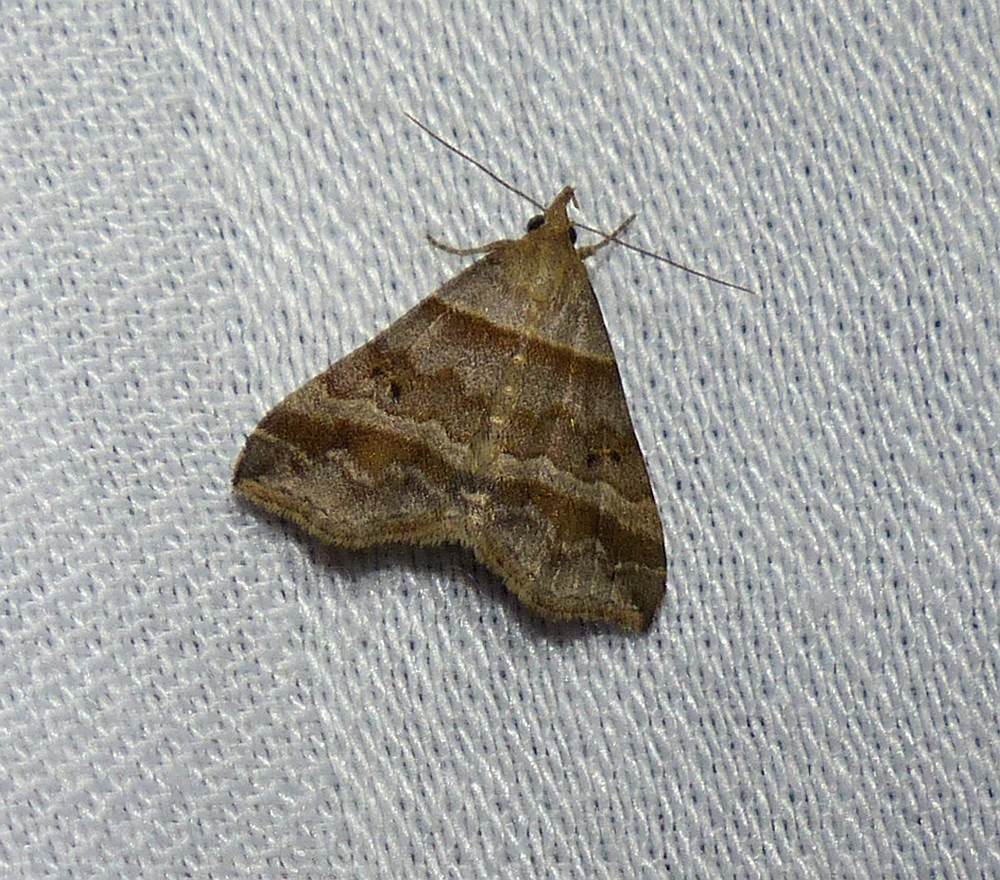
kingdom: Animalia
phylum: Arthropoda
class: Insecta
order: Lepidoptera
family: Erebidae
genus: Phaeolita
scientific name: Phaeolita pyramusalis
